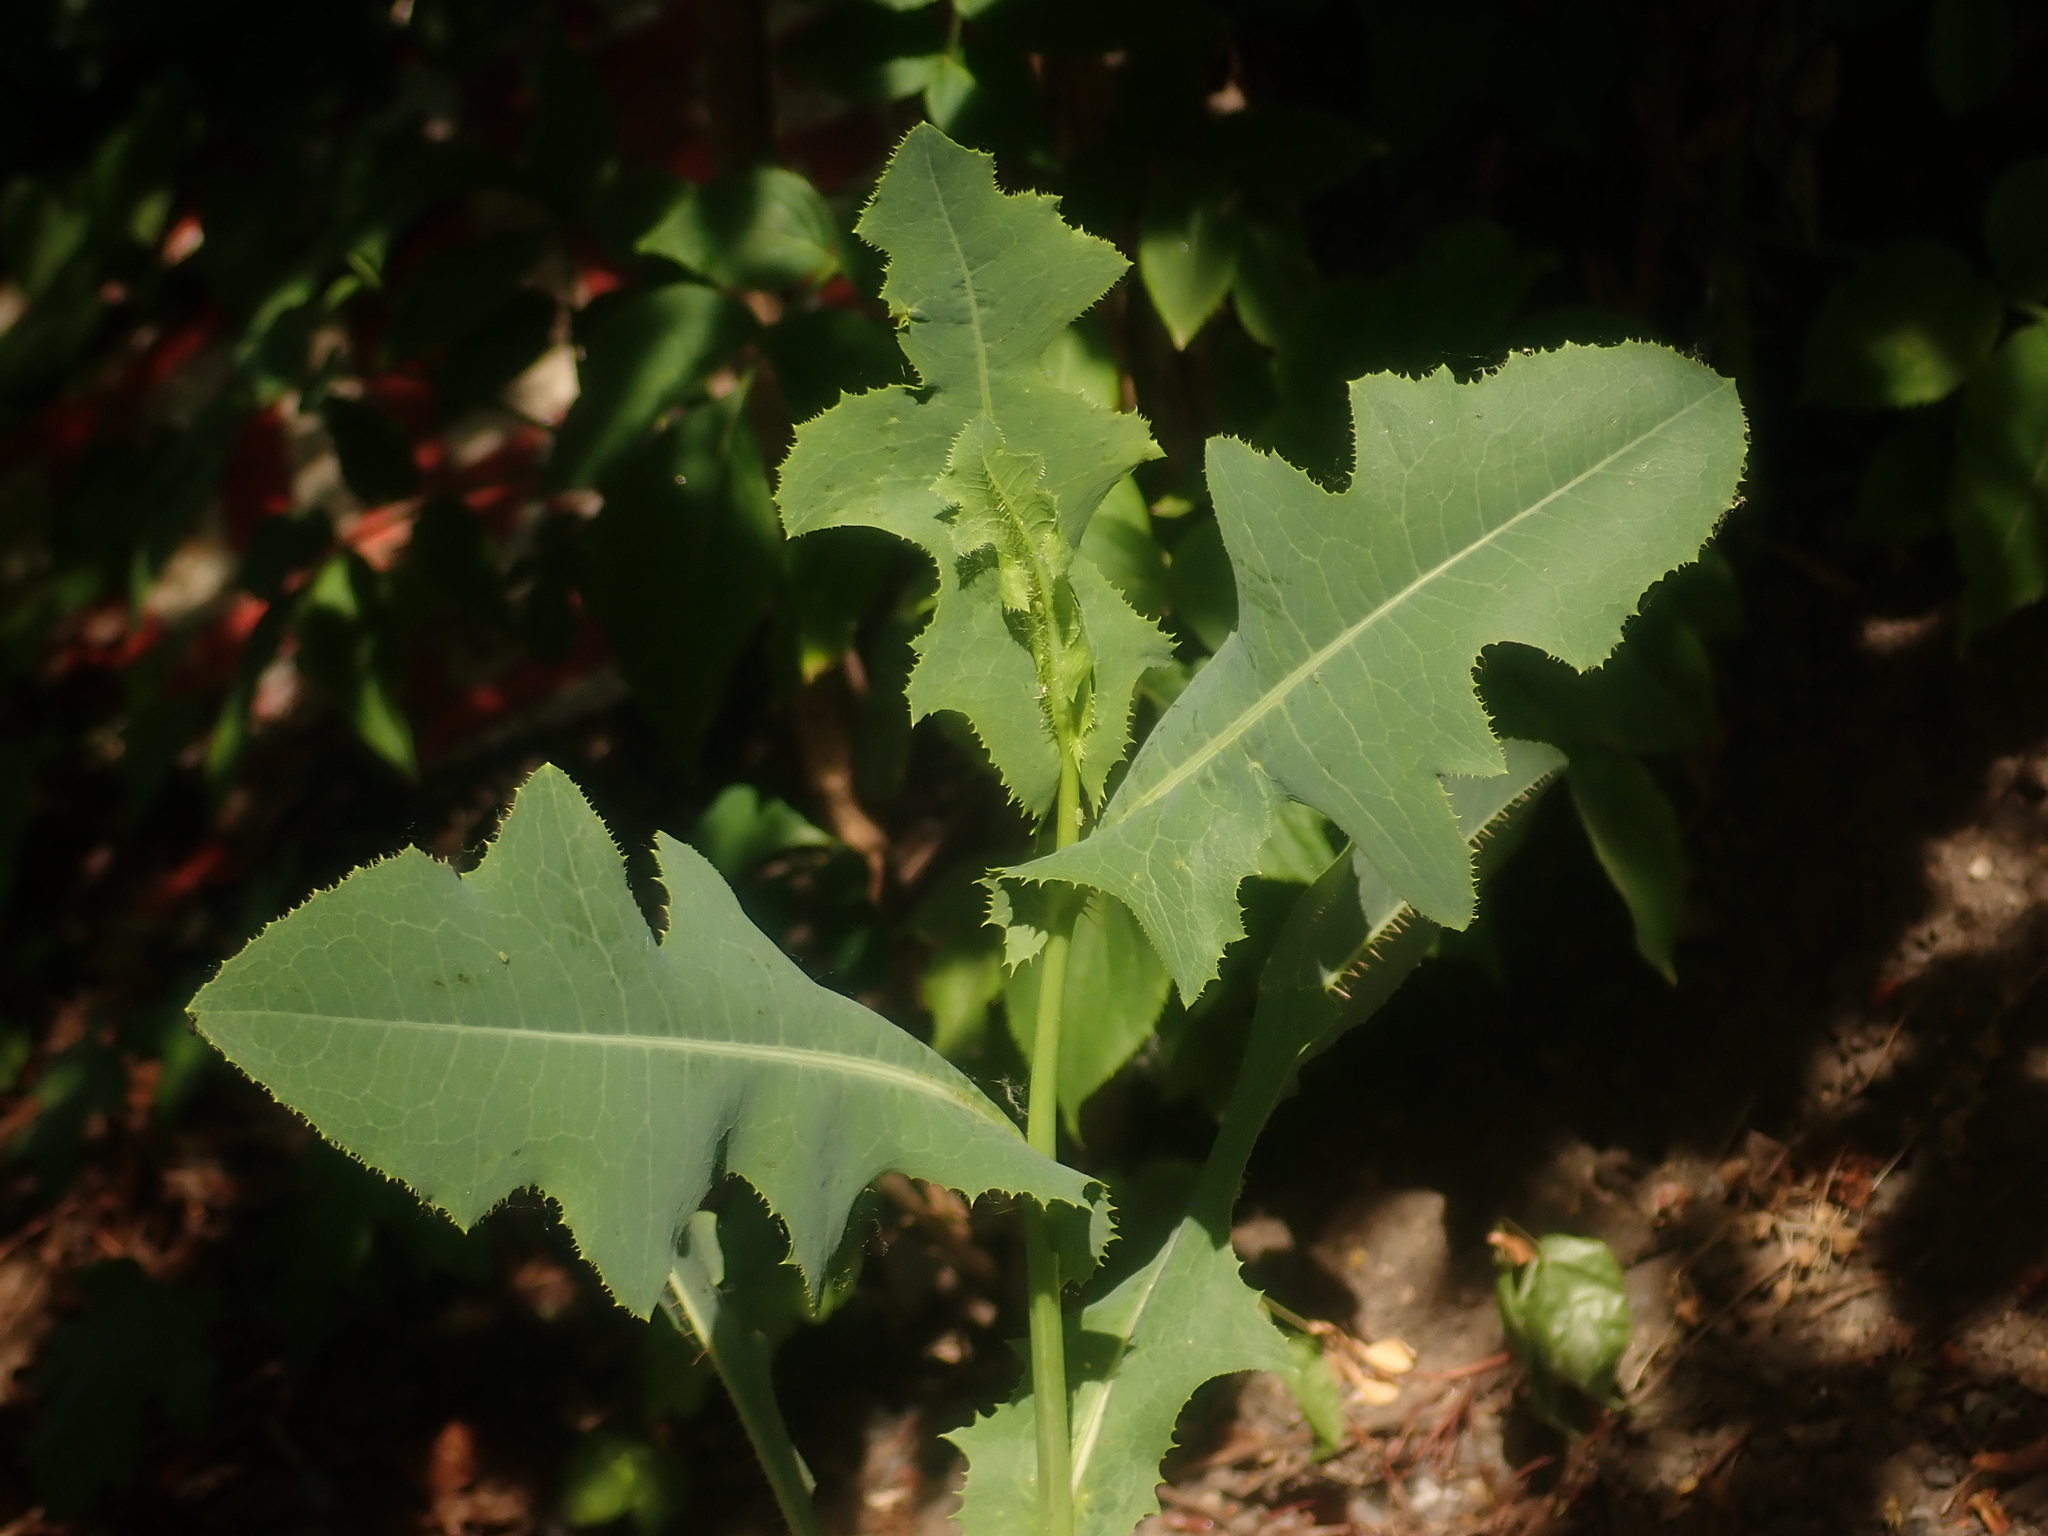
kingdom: Plantae
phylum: Tracheophyta
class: Magnoliopsida
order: Asterales
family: Asteraceae
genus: Lactuca
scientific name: Lactuca serriola
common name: Prickly lettuce
